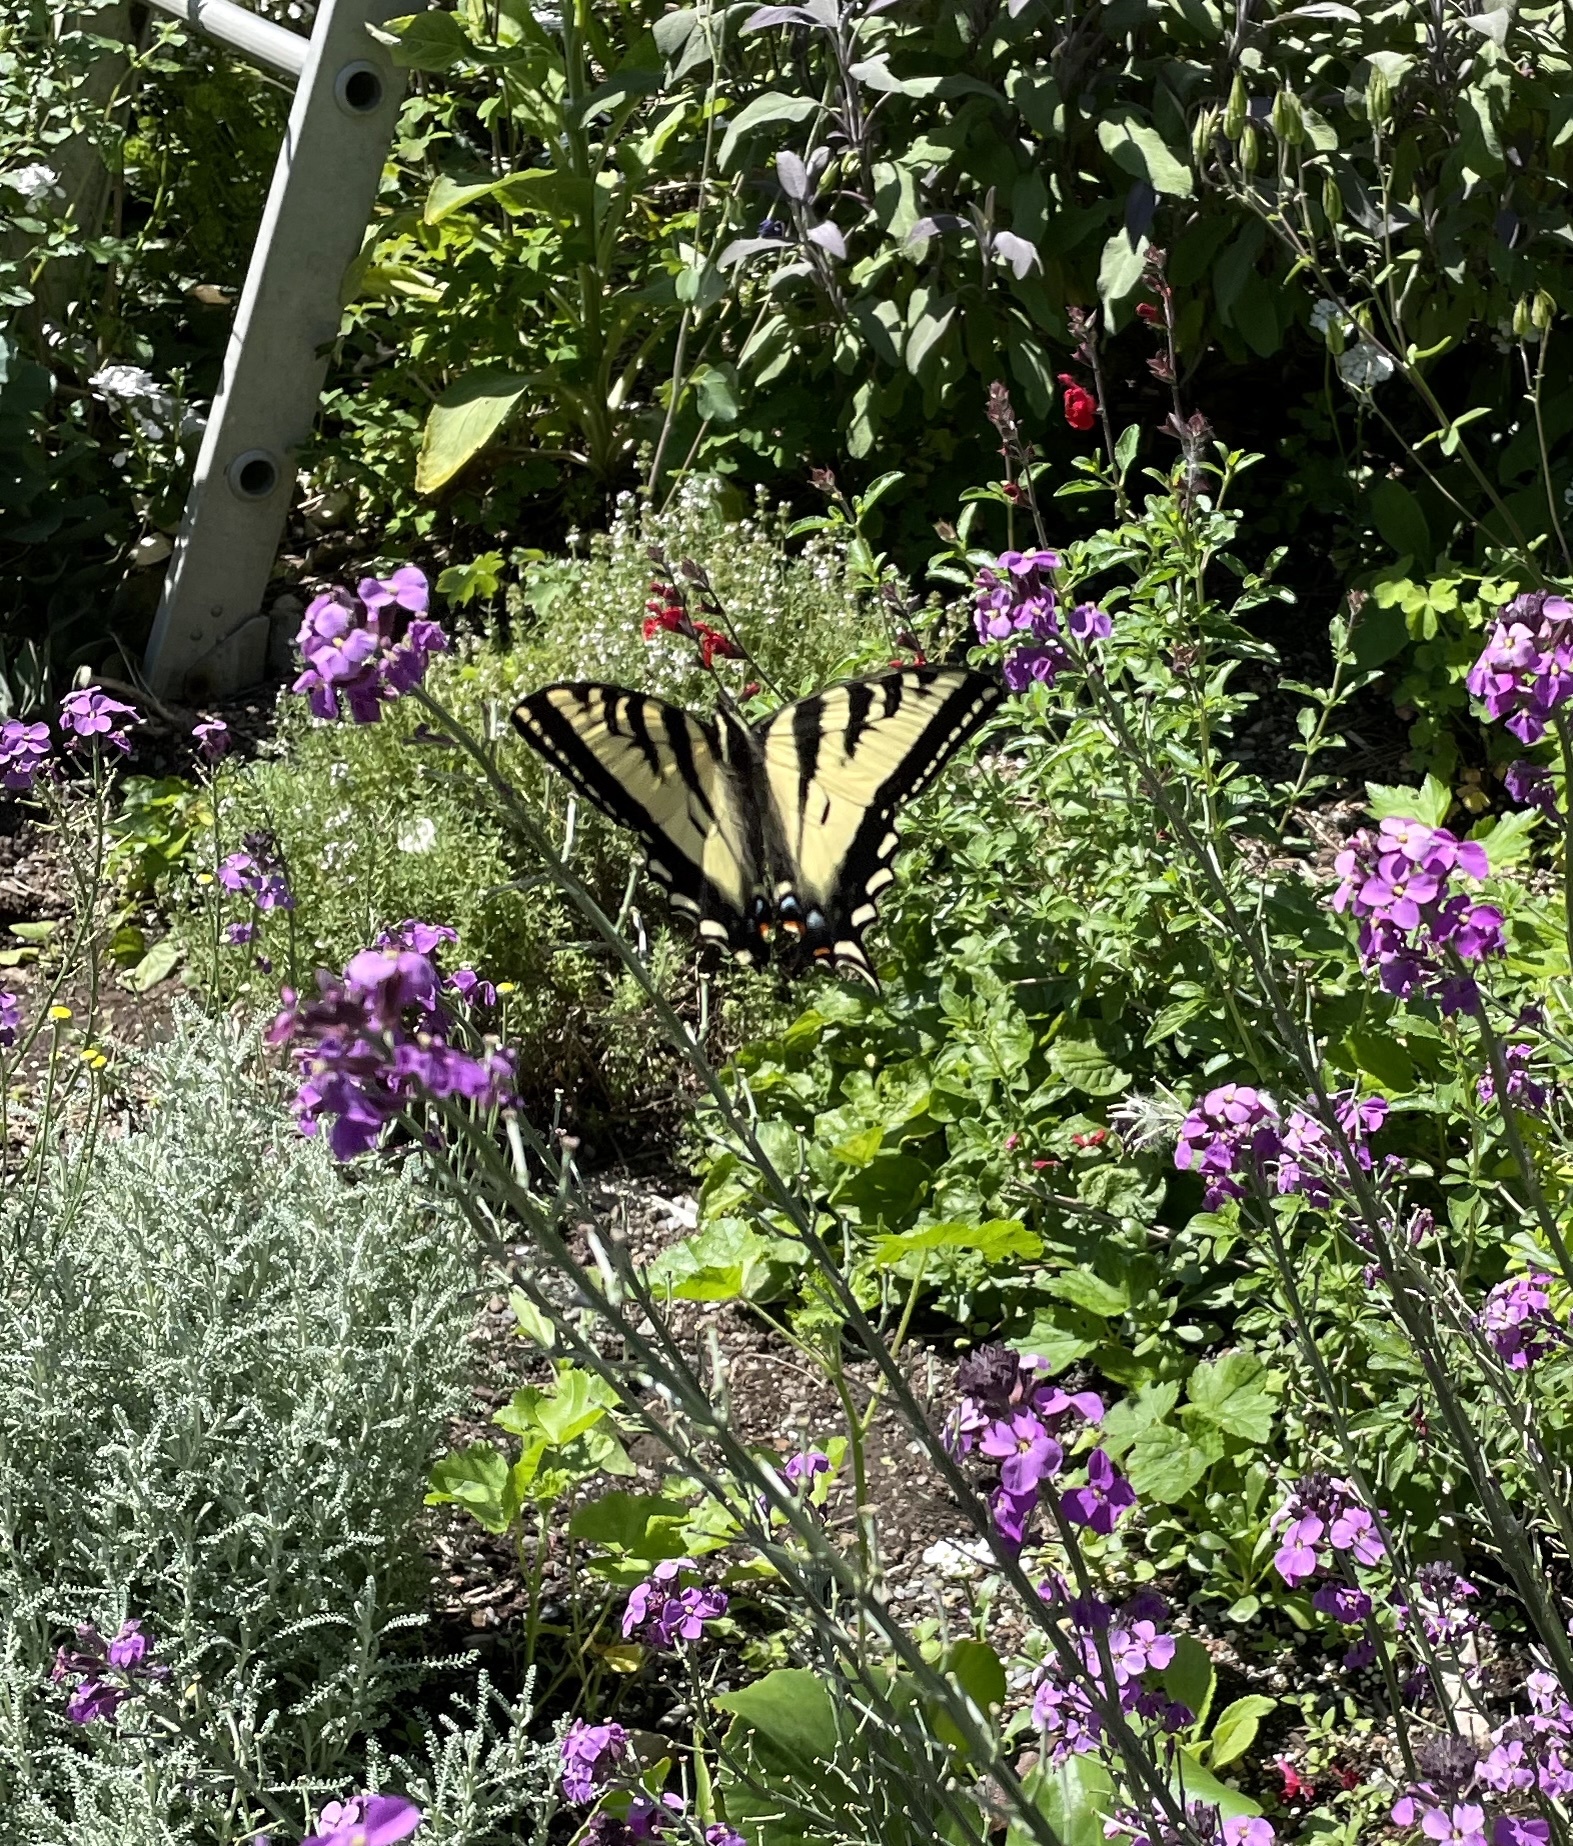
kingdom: Animalia
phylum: Arthropoda
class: Insecta
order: Lepidoptera
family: Papilionidae
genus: Papilio
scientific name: Papilio rutulus
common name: Western tiger swallowtail
